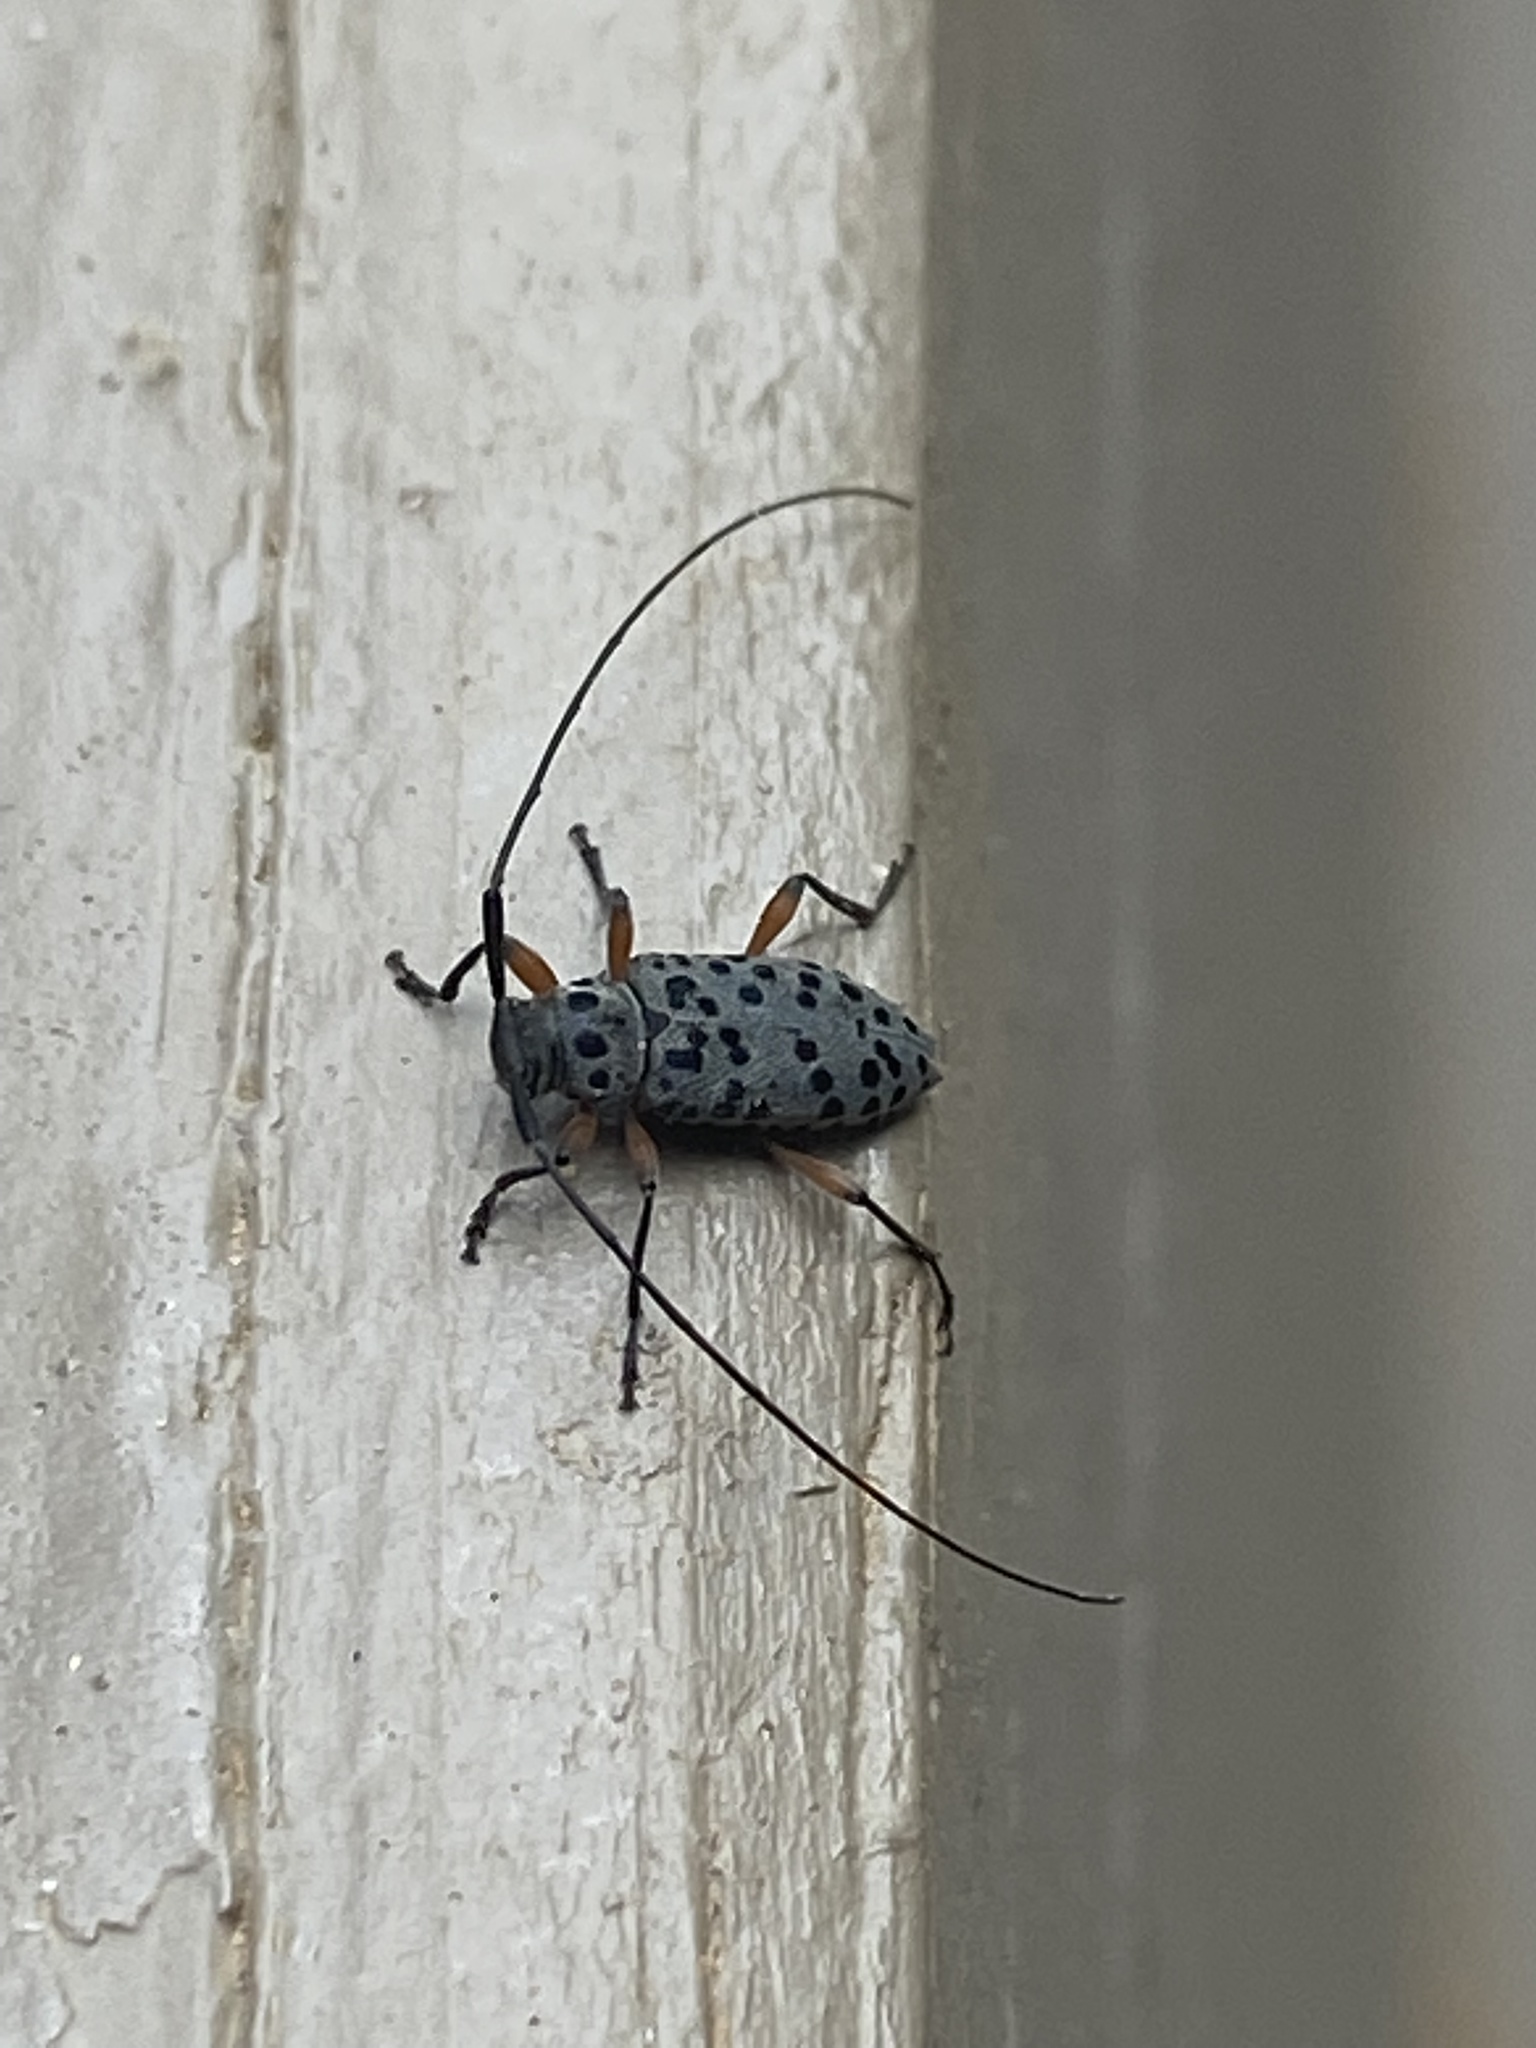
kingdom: Animalia
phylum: Arthropoda
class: Insecta
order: Coleoptera
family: Cerambycidae
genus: Hyperplatys
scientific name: Hyperplatys aspersa
